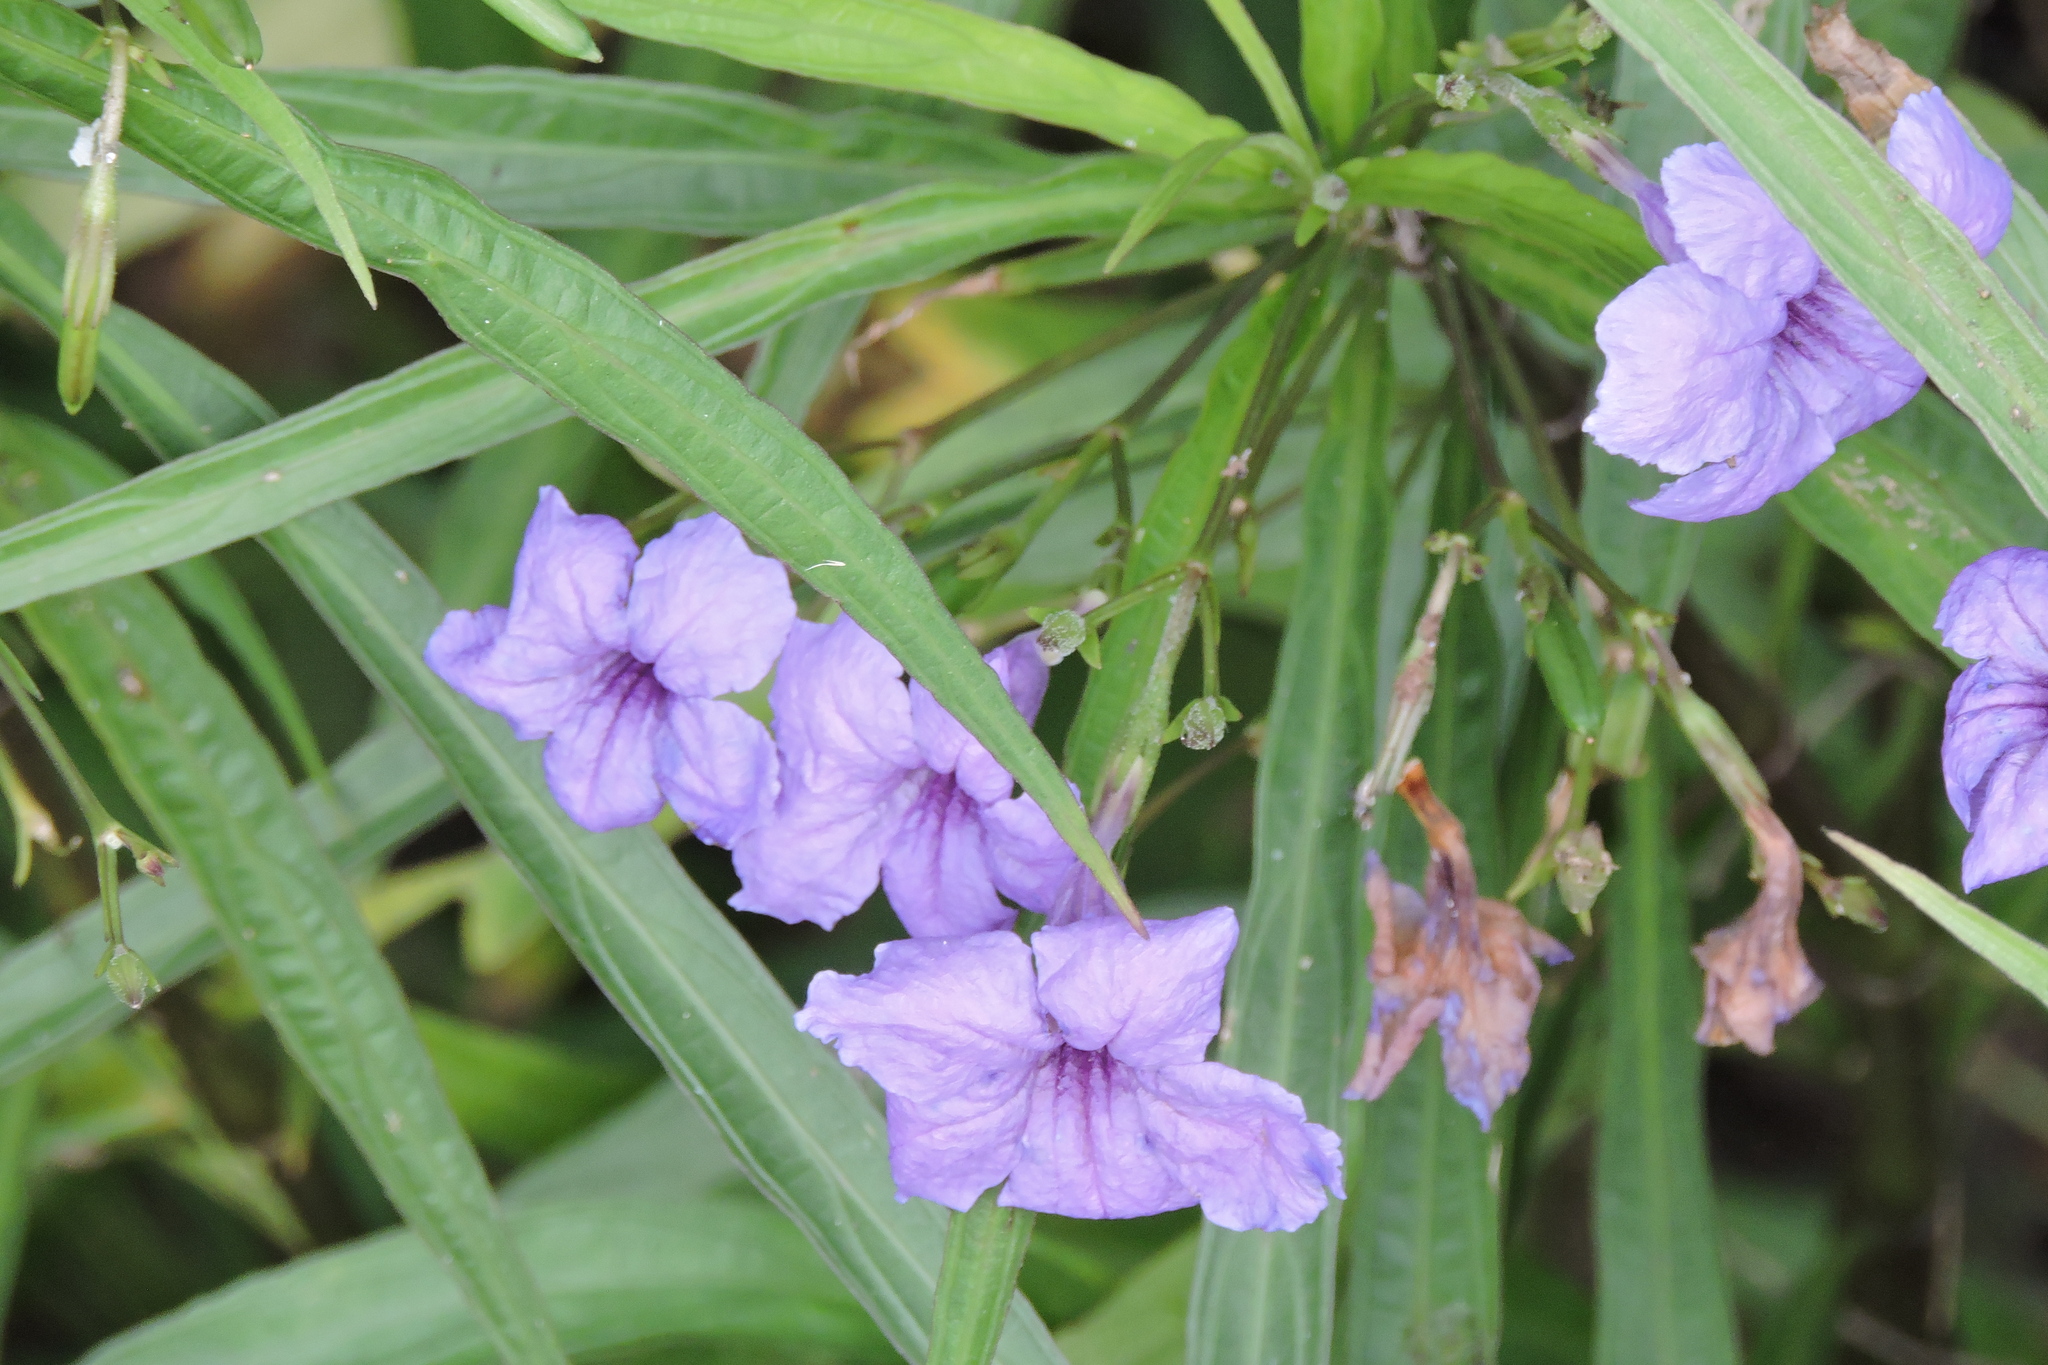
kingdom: Plantae
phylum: Tracheophyta
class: Magnoliopsida
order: Lamiales
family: Acanthaceae
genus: Ruellia
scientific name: Ruellia simplex
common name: Softseed wild petunia
